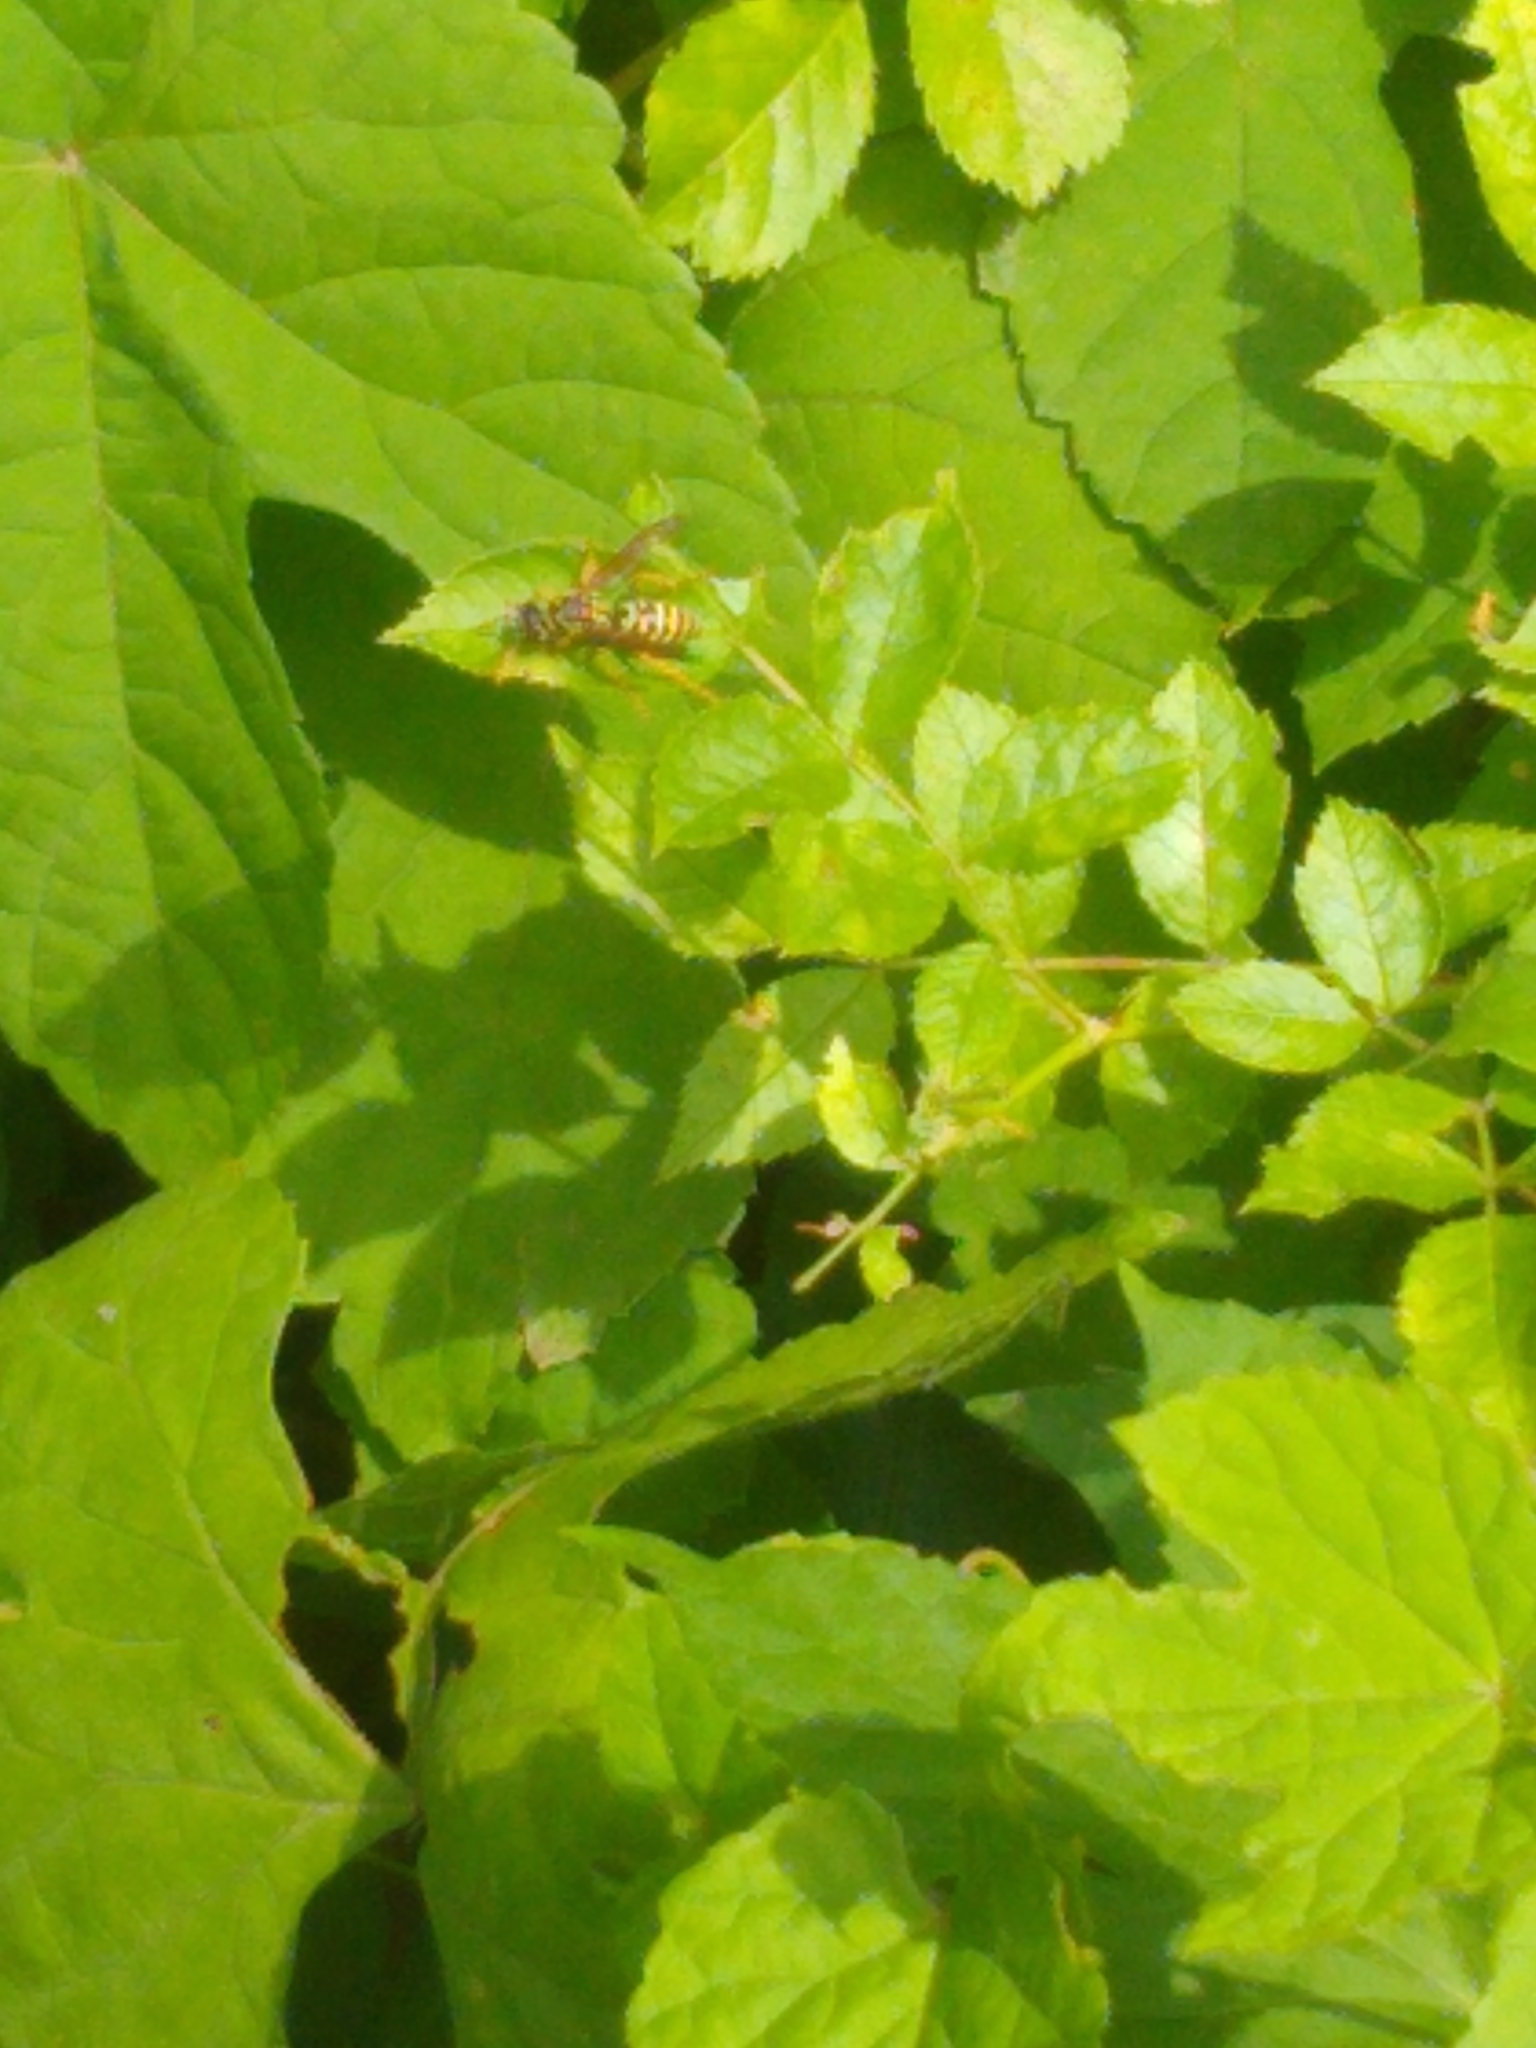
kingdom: Animalia
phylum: Arthropoda
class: Insecta
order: Hymenoptera
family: Eumenidae
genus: Polistes
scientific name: Polistes dominula
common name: Paper wasp
